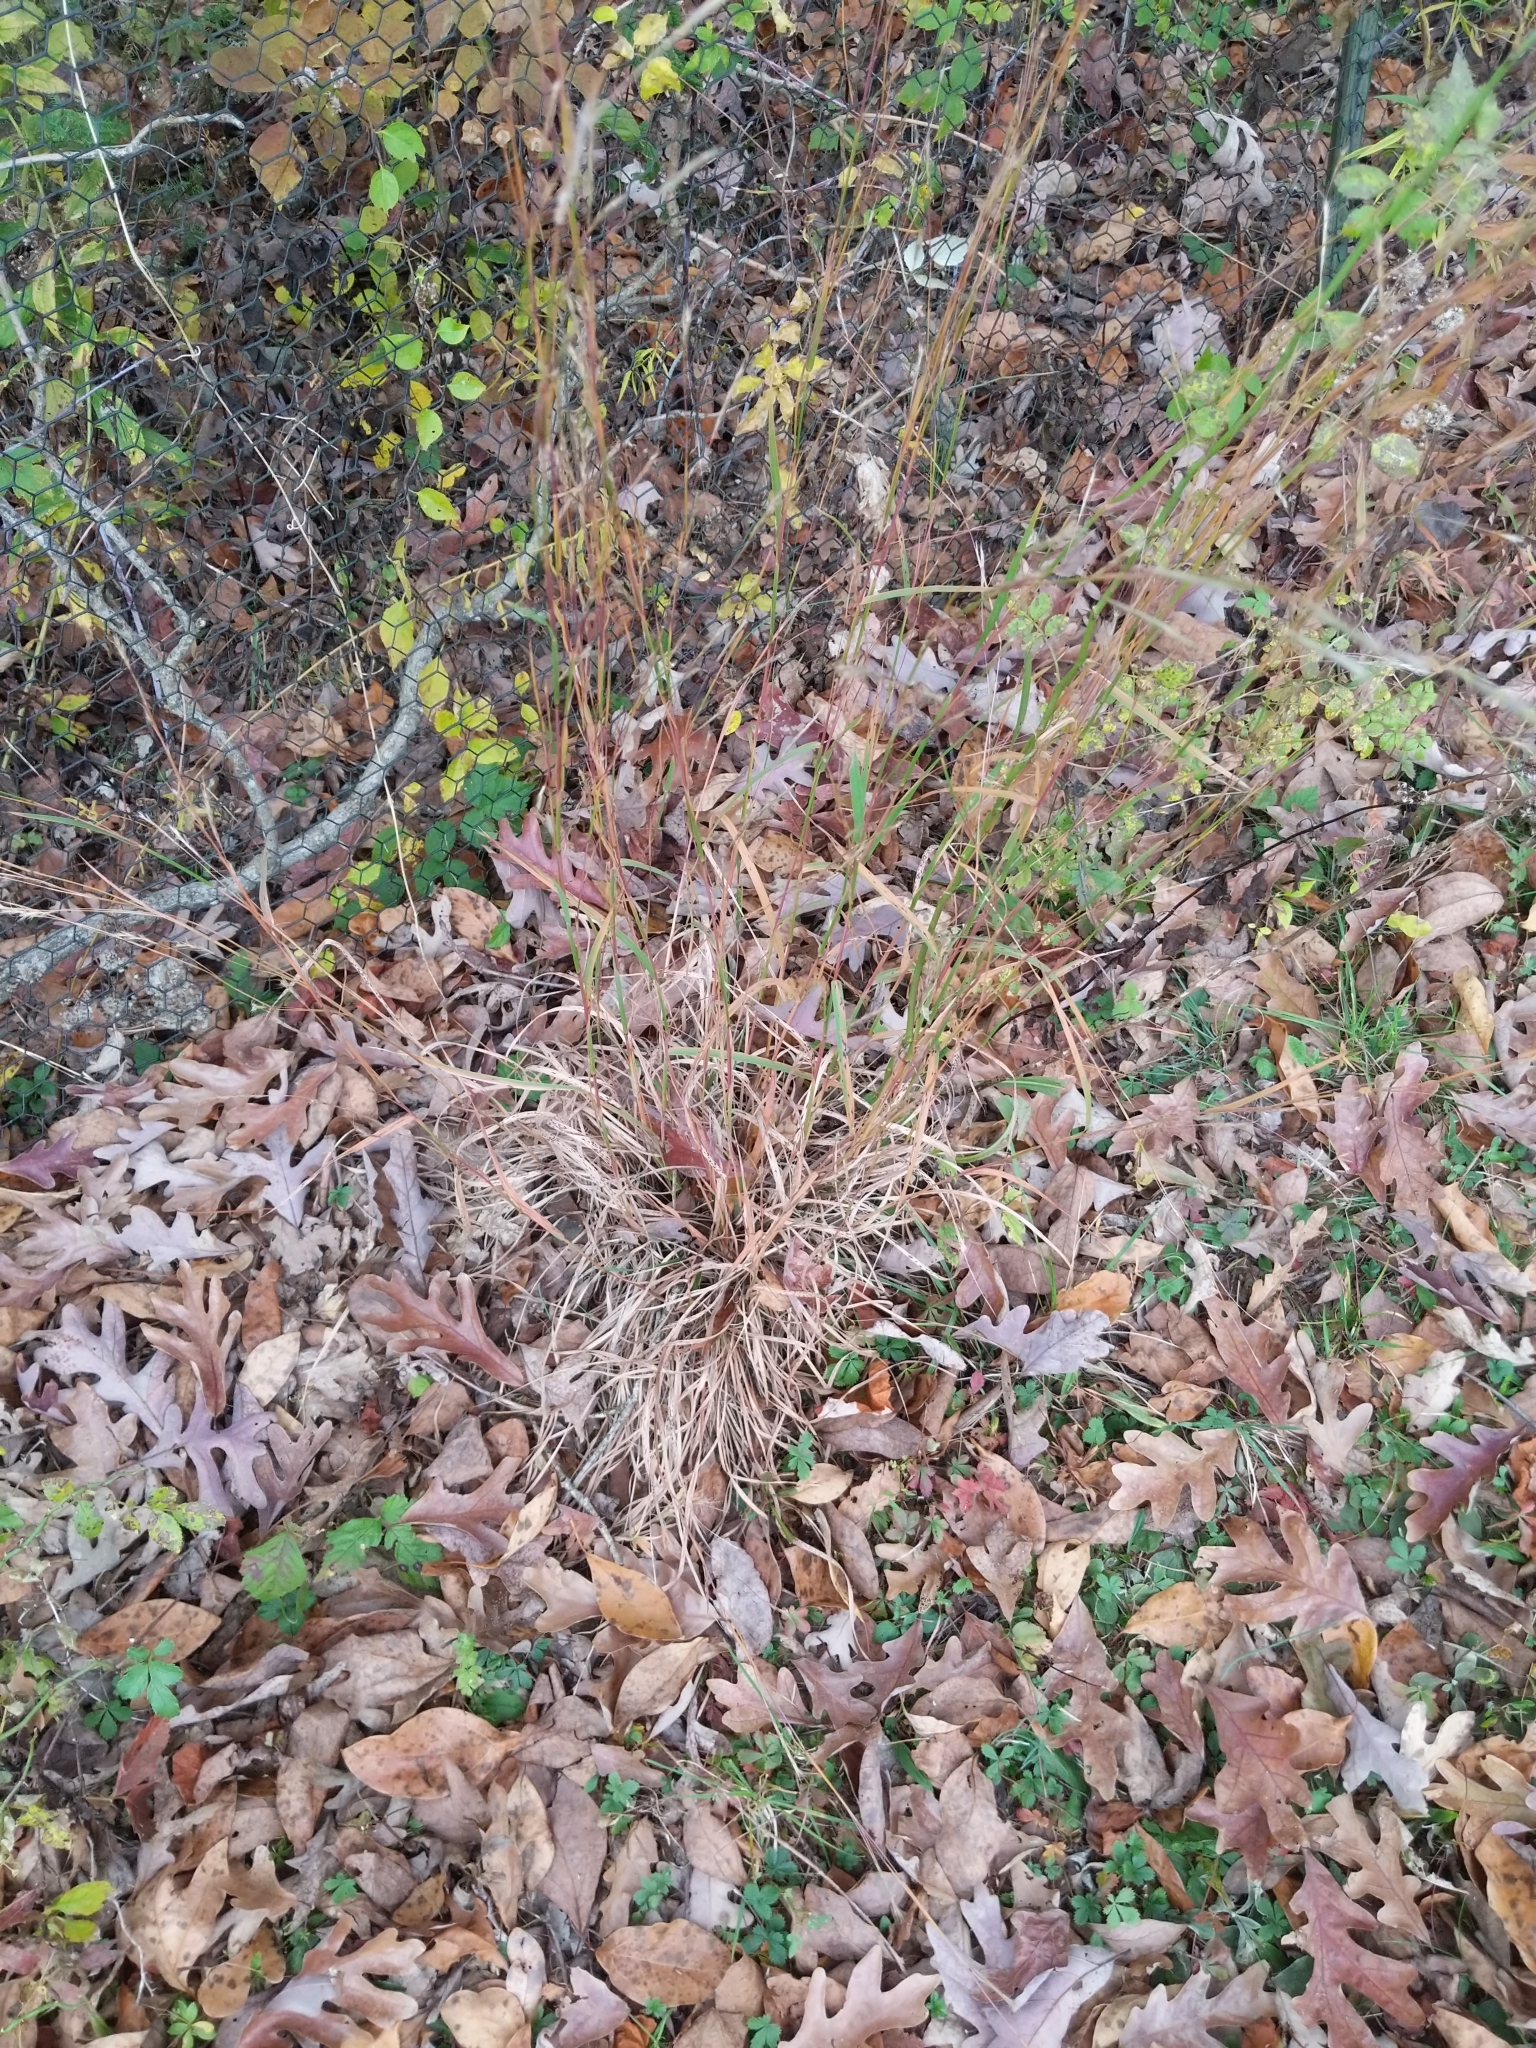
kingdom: Plantae
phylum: Tracheophyta
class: Liliopsida
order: Poales
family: Poaceae
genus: Schizachyrium
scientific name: Schizachyrium scoparium
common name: Little bluestem
